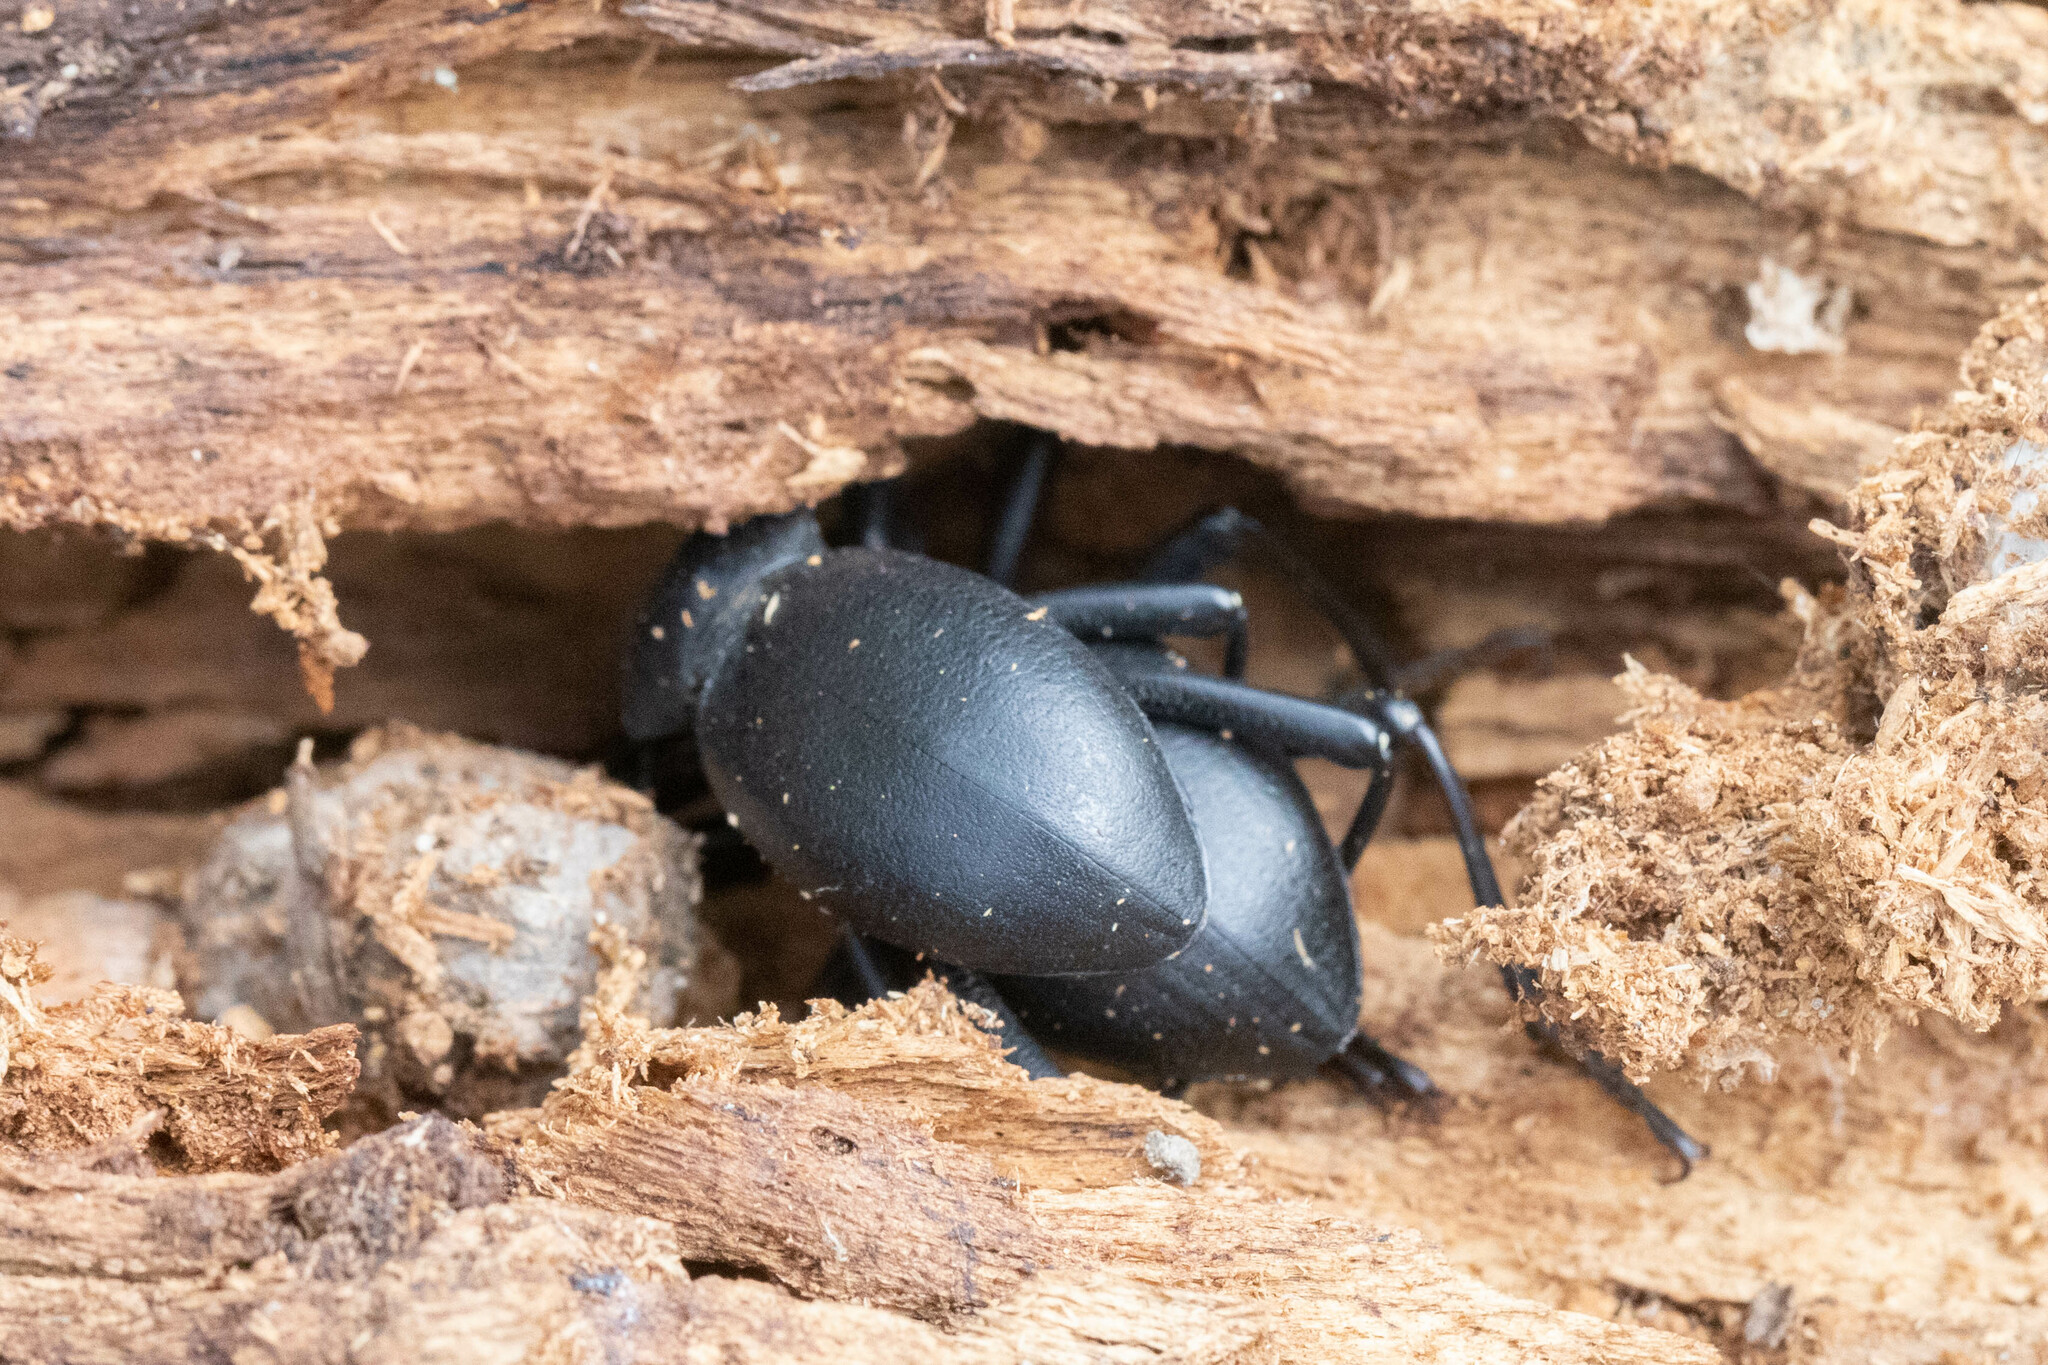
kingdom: Animalia
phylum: Arthropoda
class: Insecta
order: Coleoptera
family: Tenebrionidae
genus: Coelocnemis
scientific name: Coelocnemis dilaticollis
